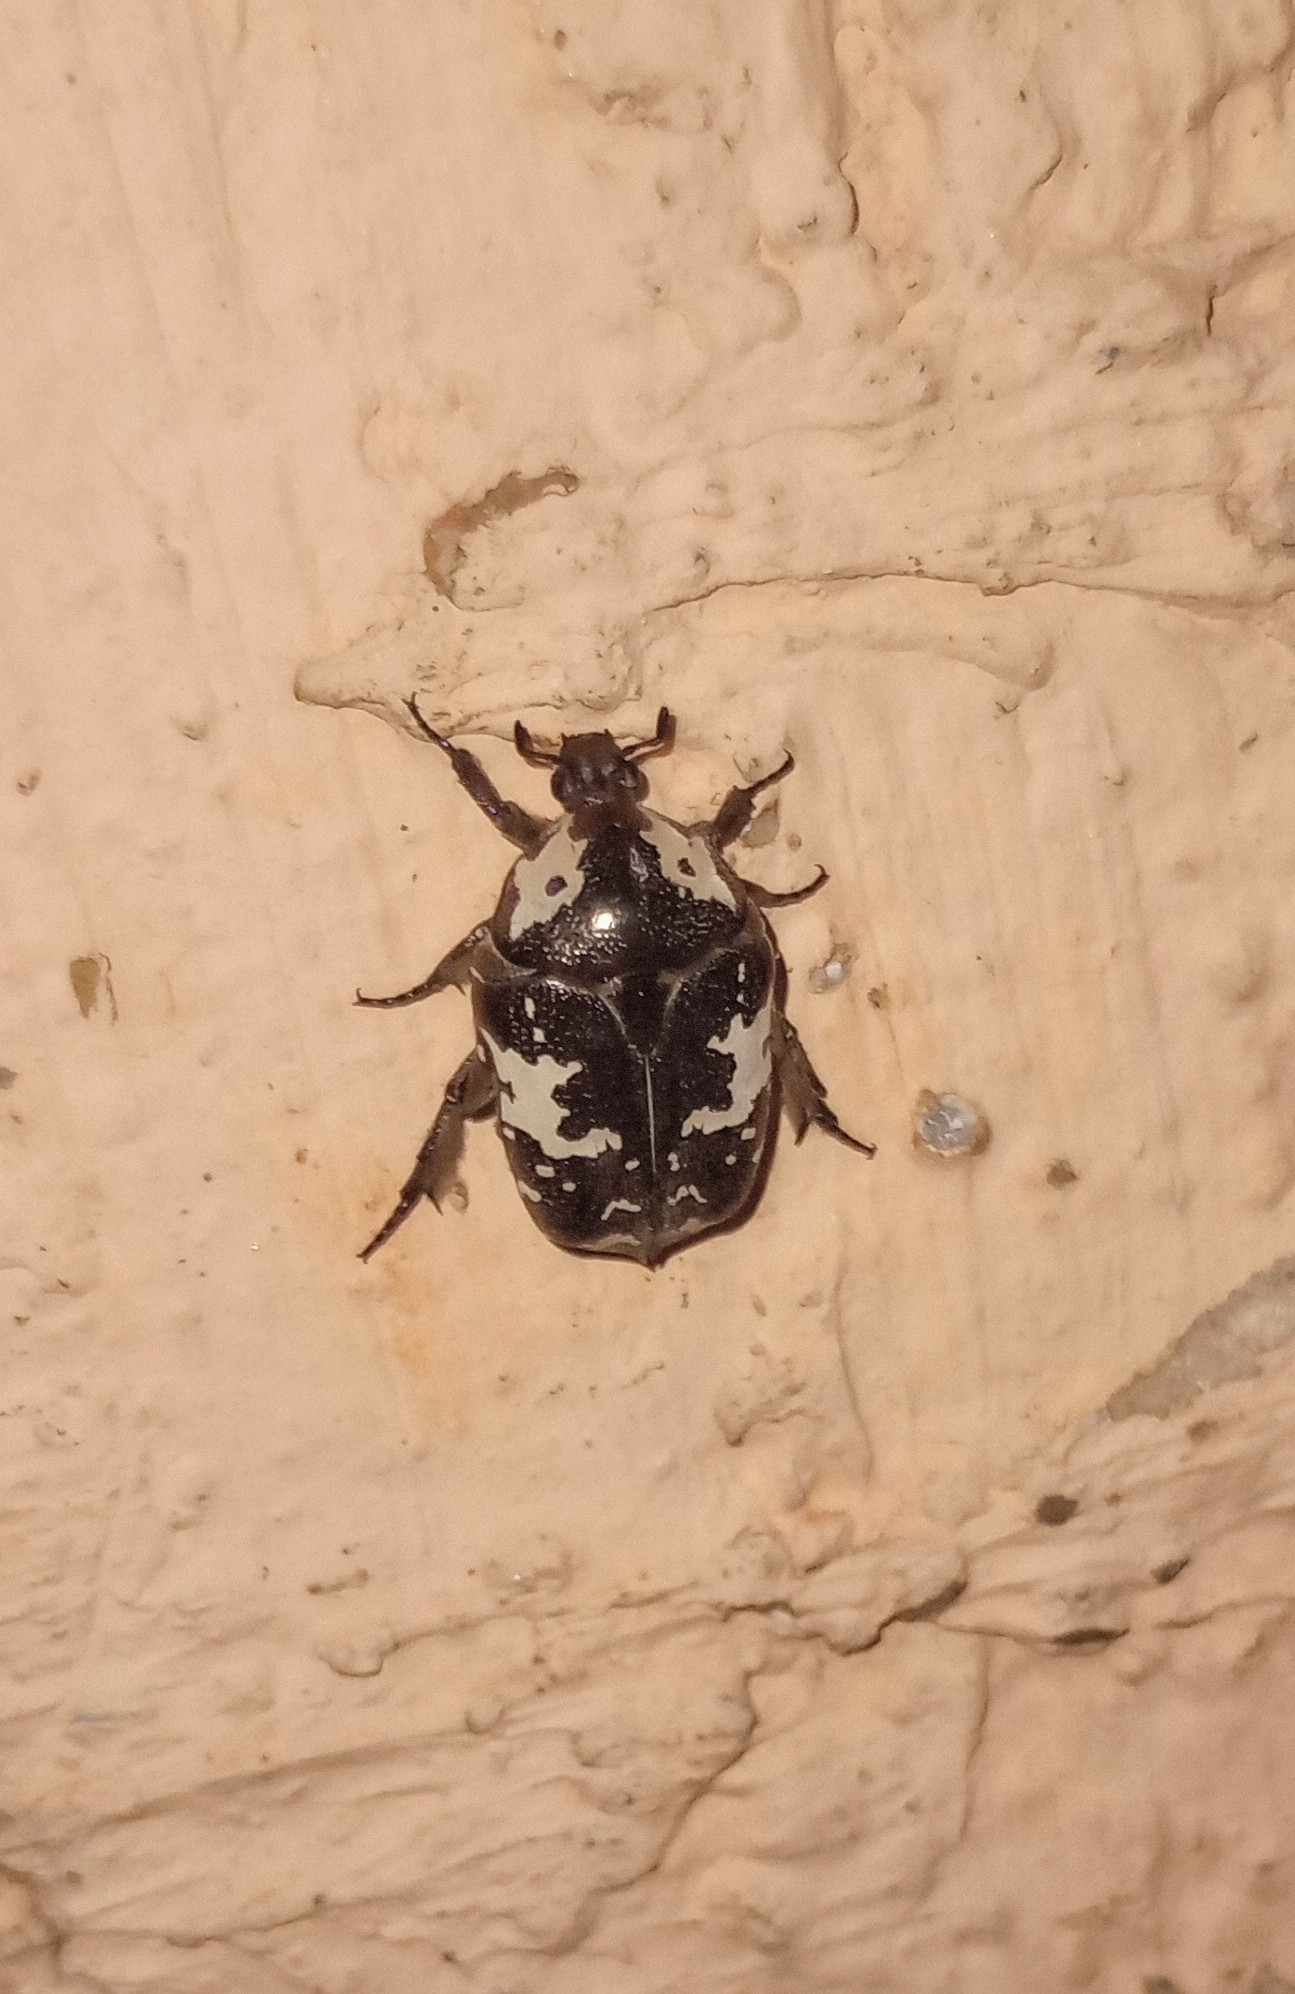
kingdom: Animalia
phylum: Arthropoda
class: Insecta
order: Coleoptera
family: Scarabaeidae
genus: Protaetia
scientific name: Protaetia aurichalcea
